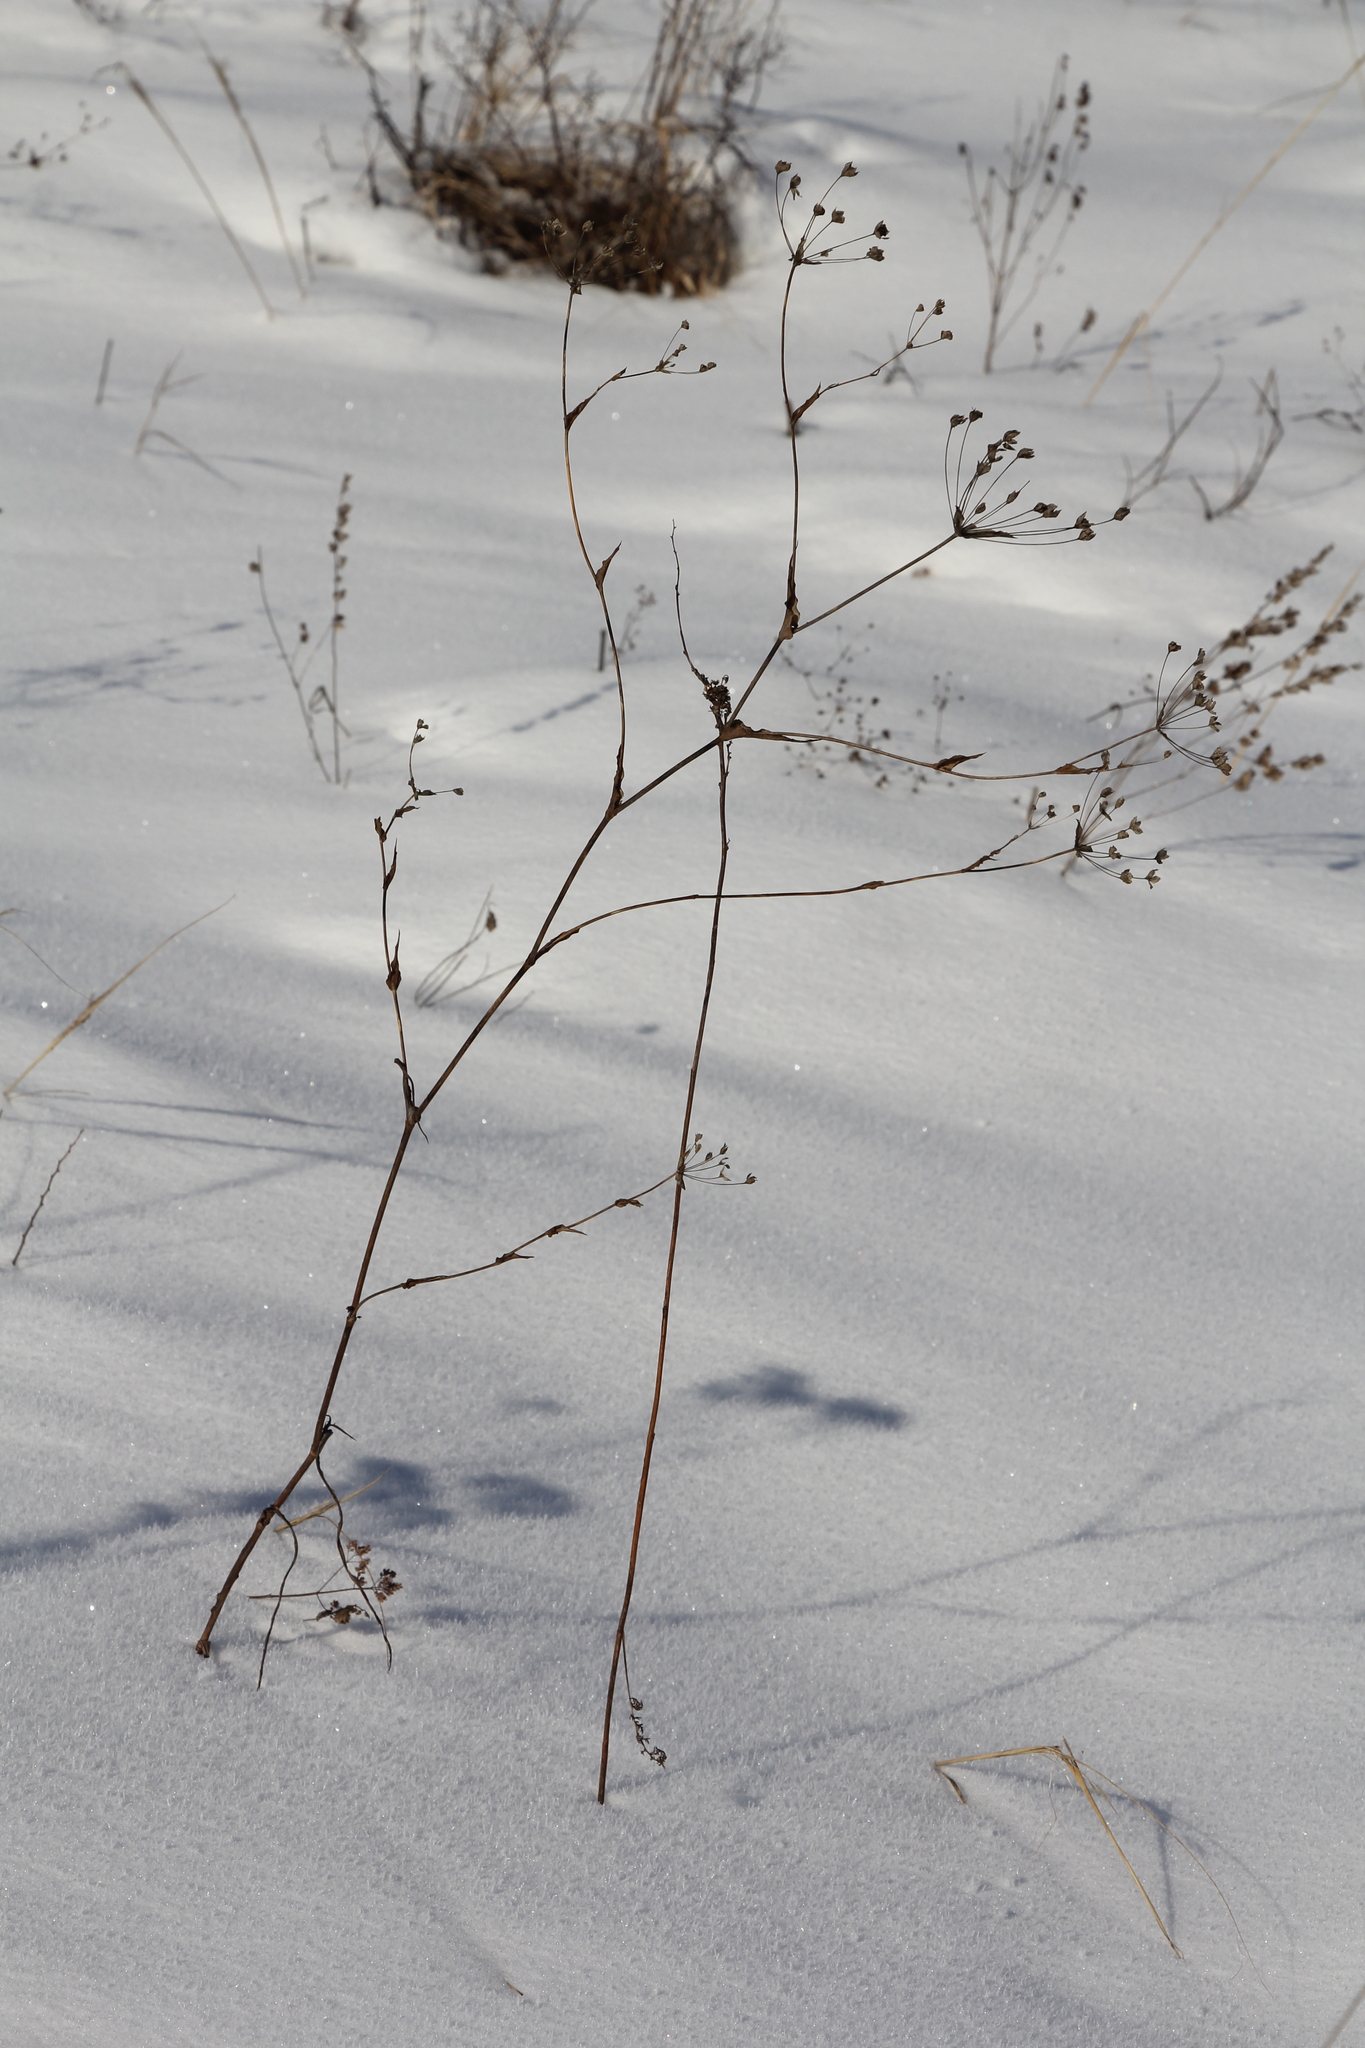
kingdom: Plantae
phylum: Tracheophyta
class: Magnoliopsida
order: Apiales
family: Apiaceae
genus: Bupleurum
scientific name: Bupleurum multinerve
